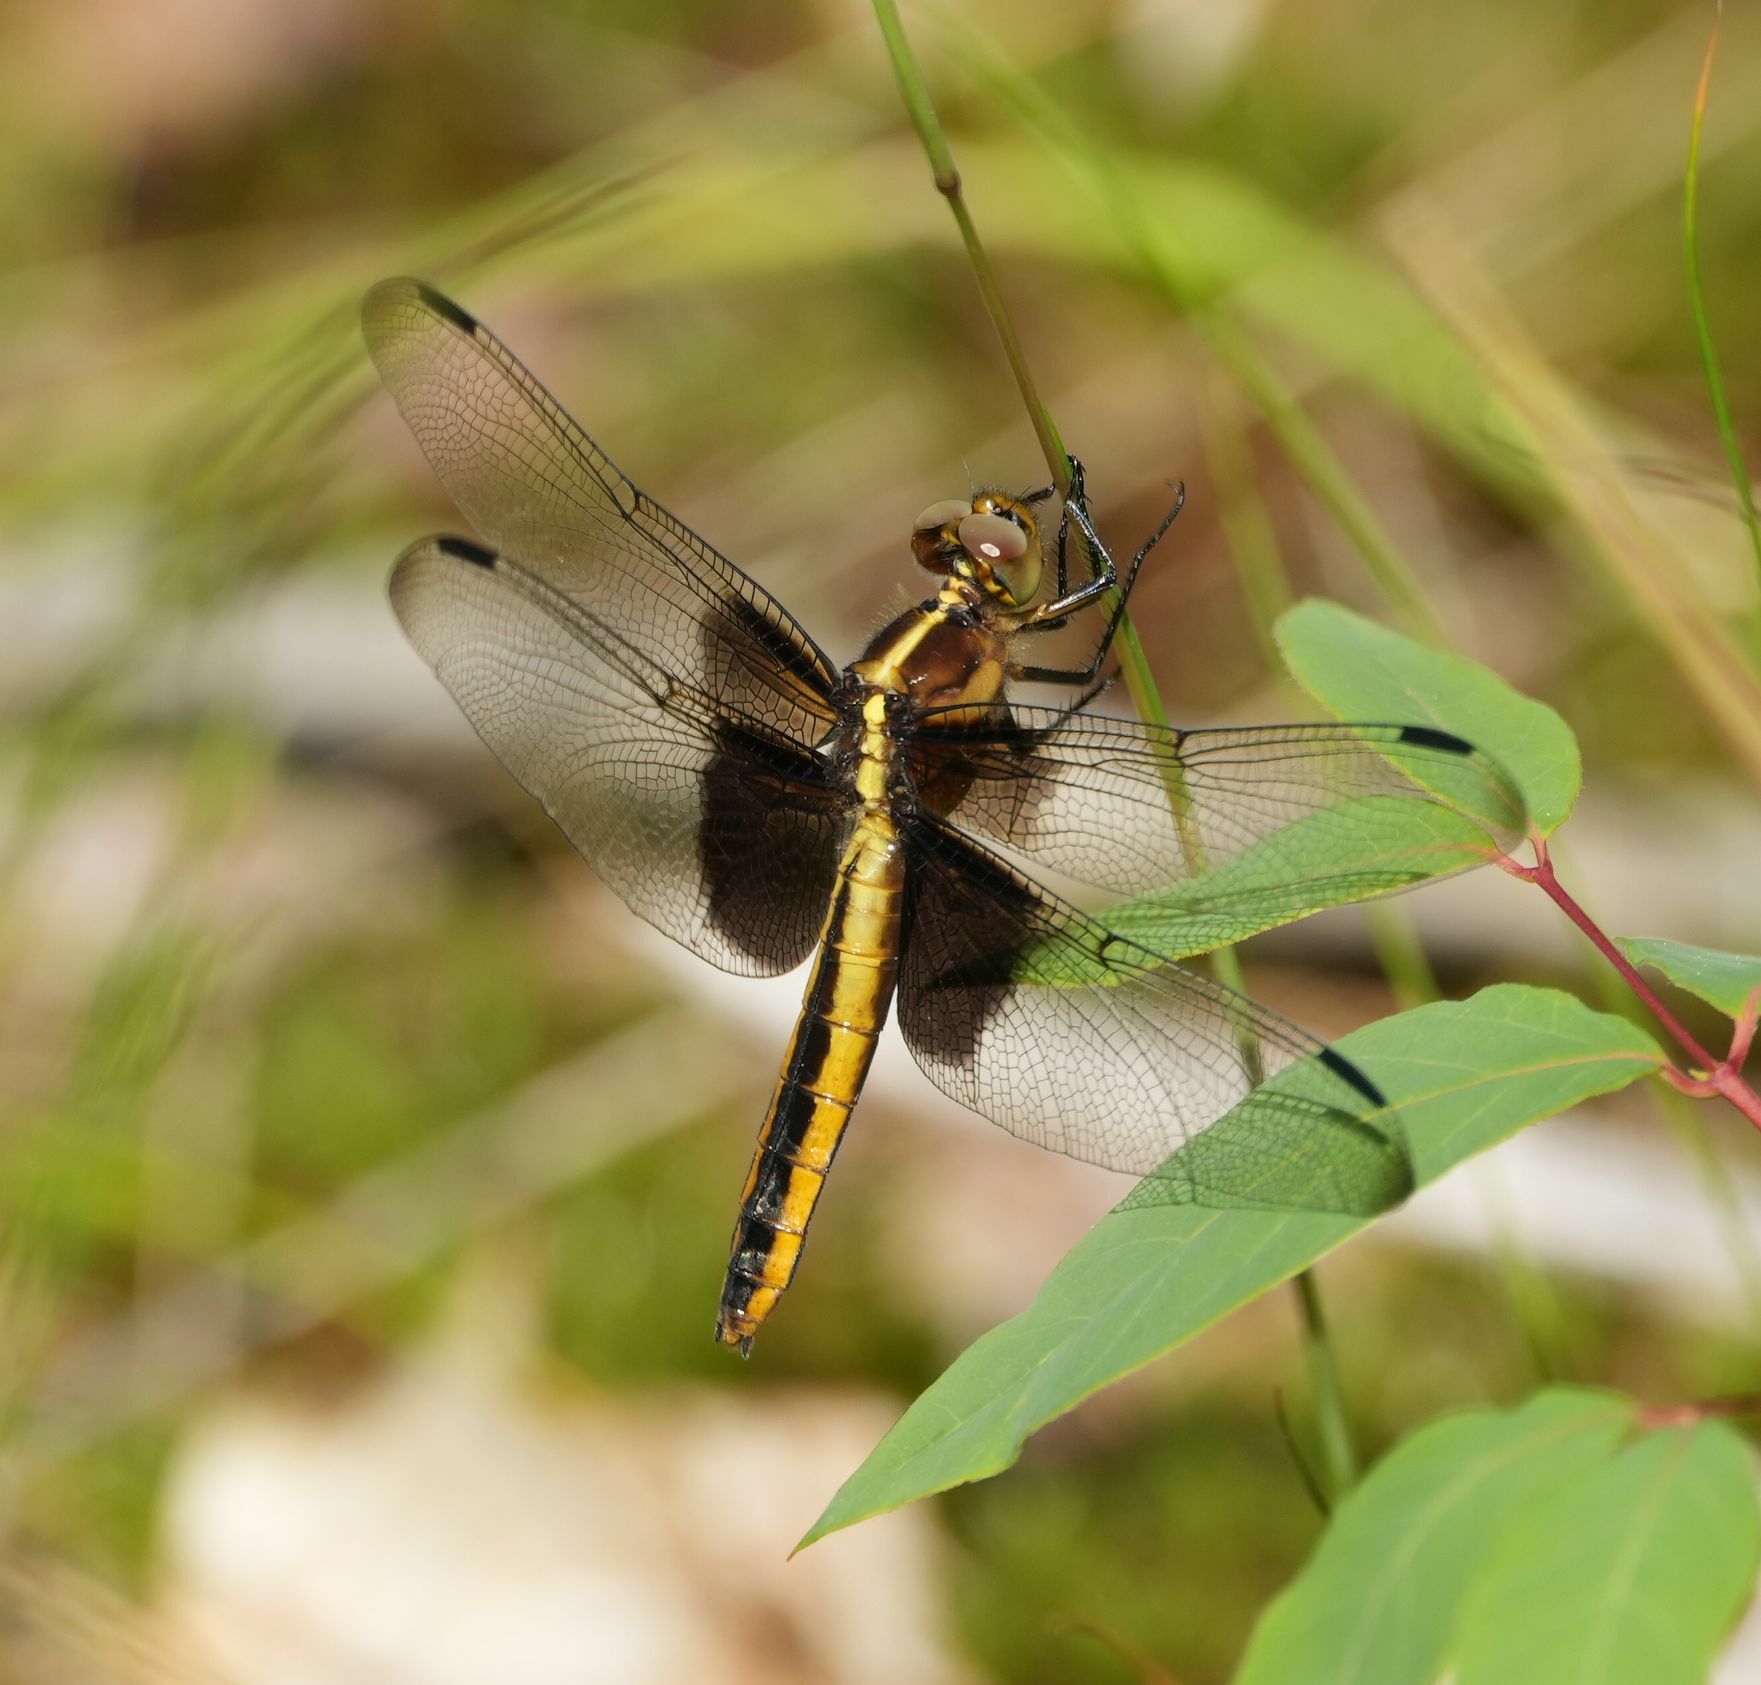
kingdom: Animalia
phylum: Arthropoda
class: Insecta
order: Odonata
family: Libellulidae
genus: Libellula
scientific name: Libellula luctuosa
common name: Widow skimmer
